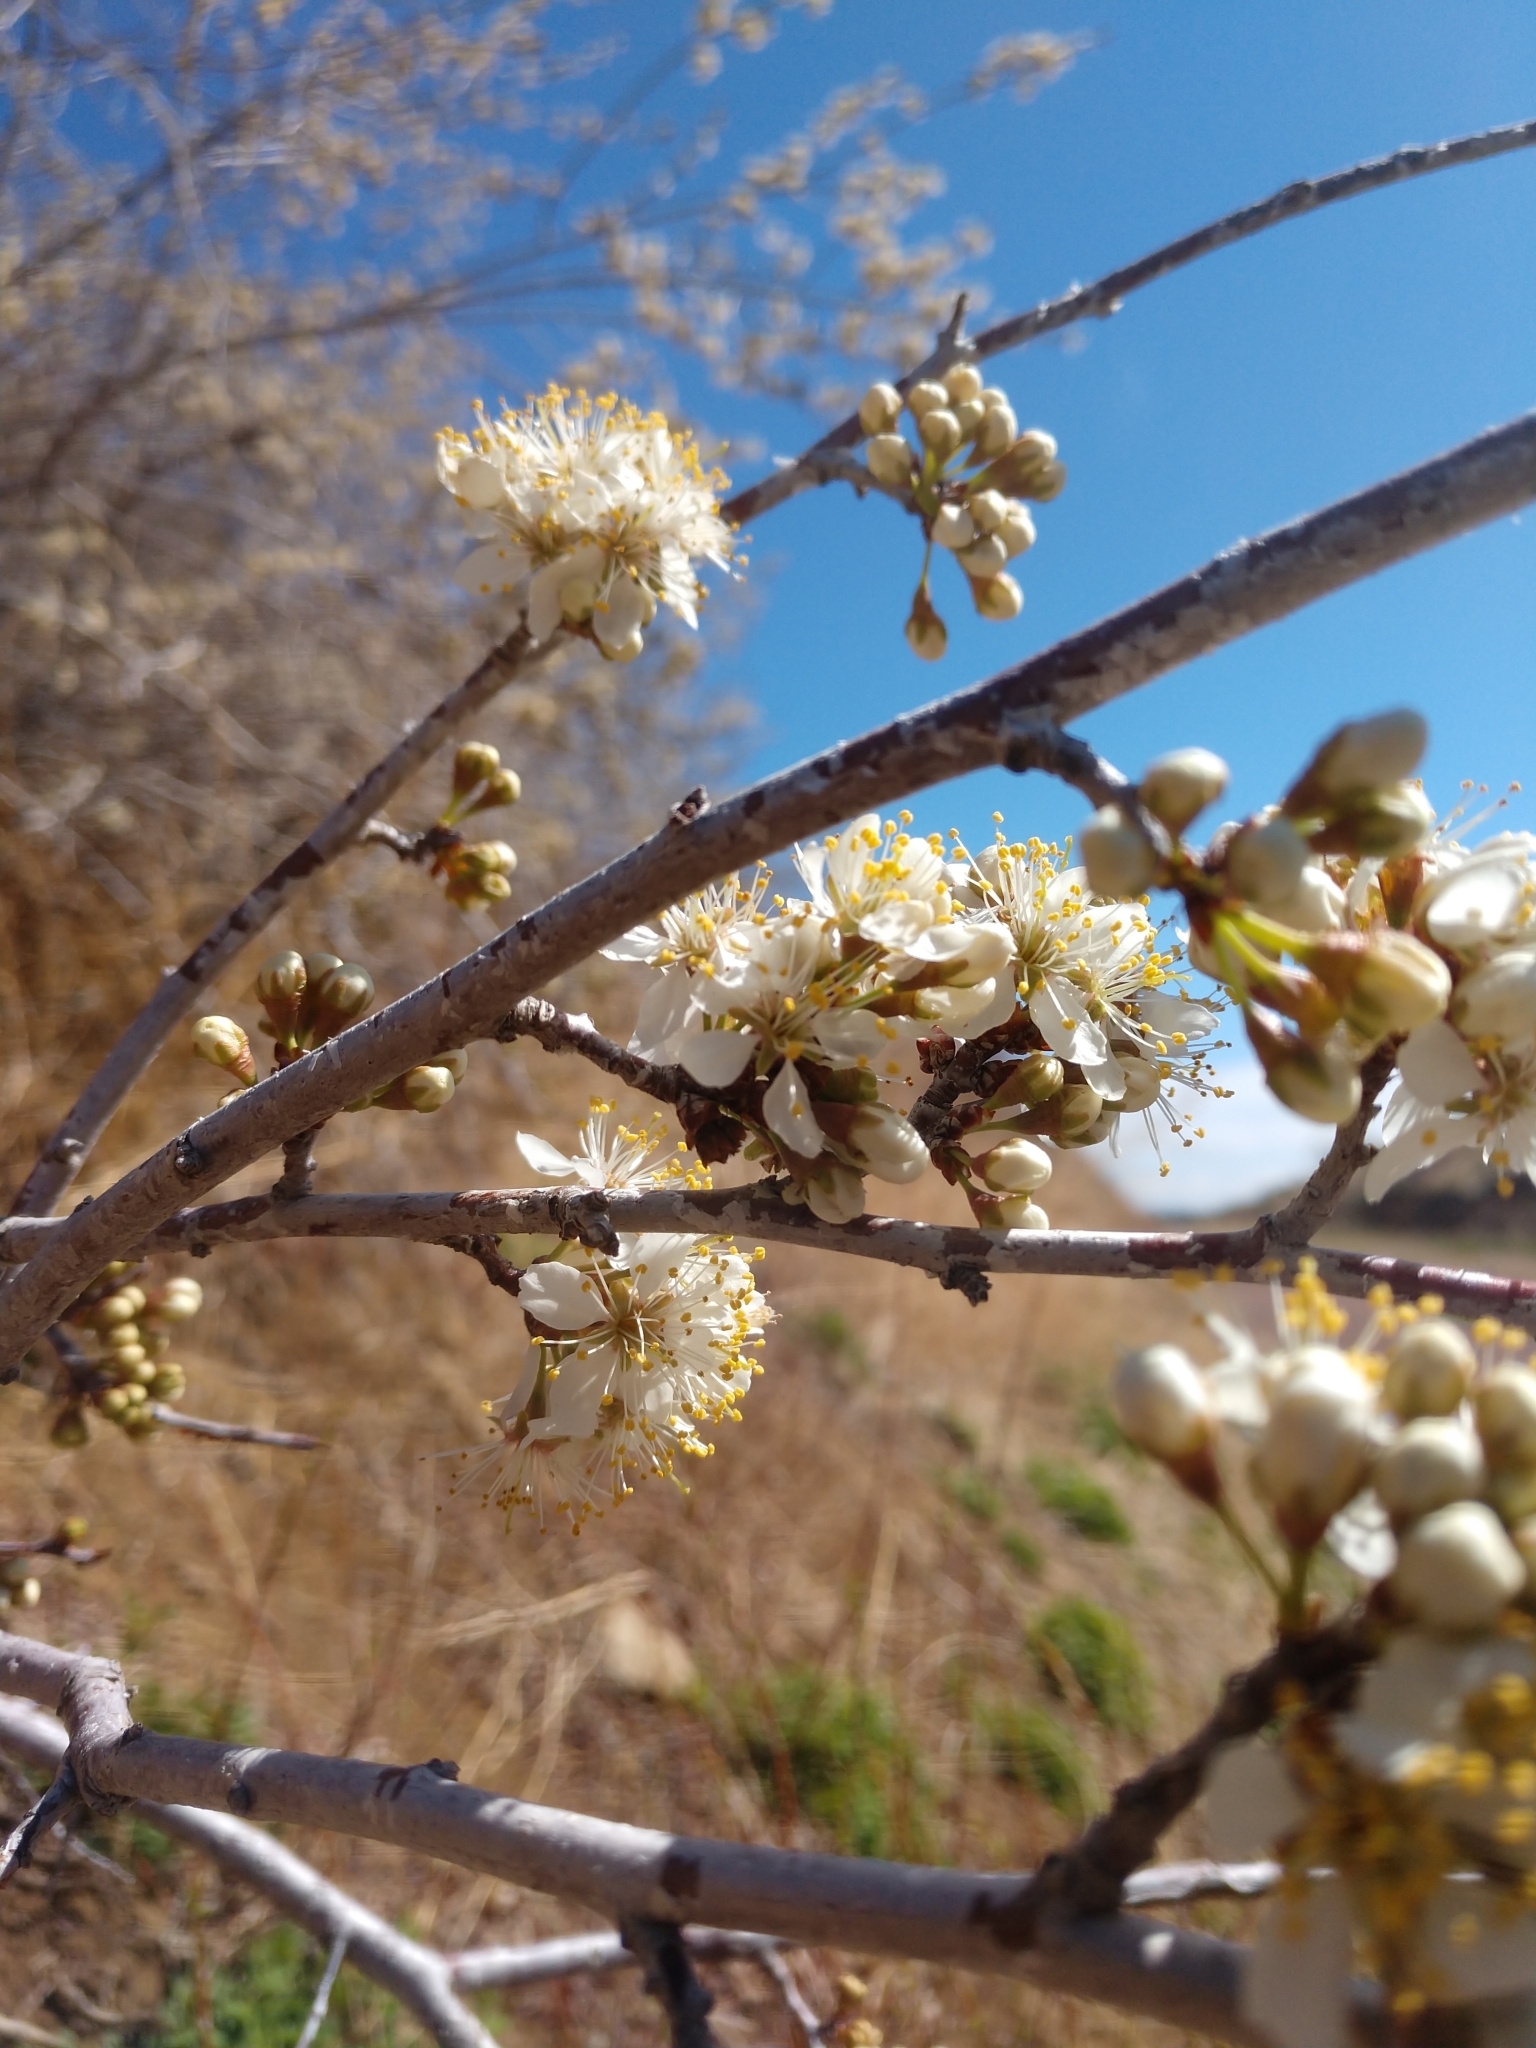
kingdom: Plantae
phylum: Tracheophyta
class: Magnoliopsida
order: Rosales
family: Rosaceae
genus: Prunus
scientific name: Prunus americana
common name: American plum
